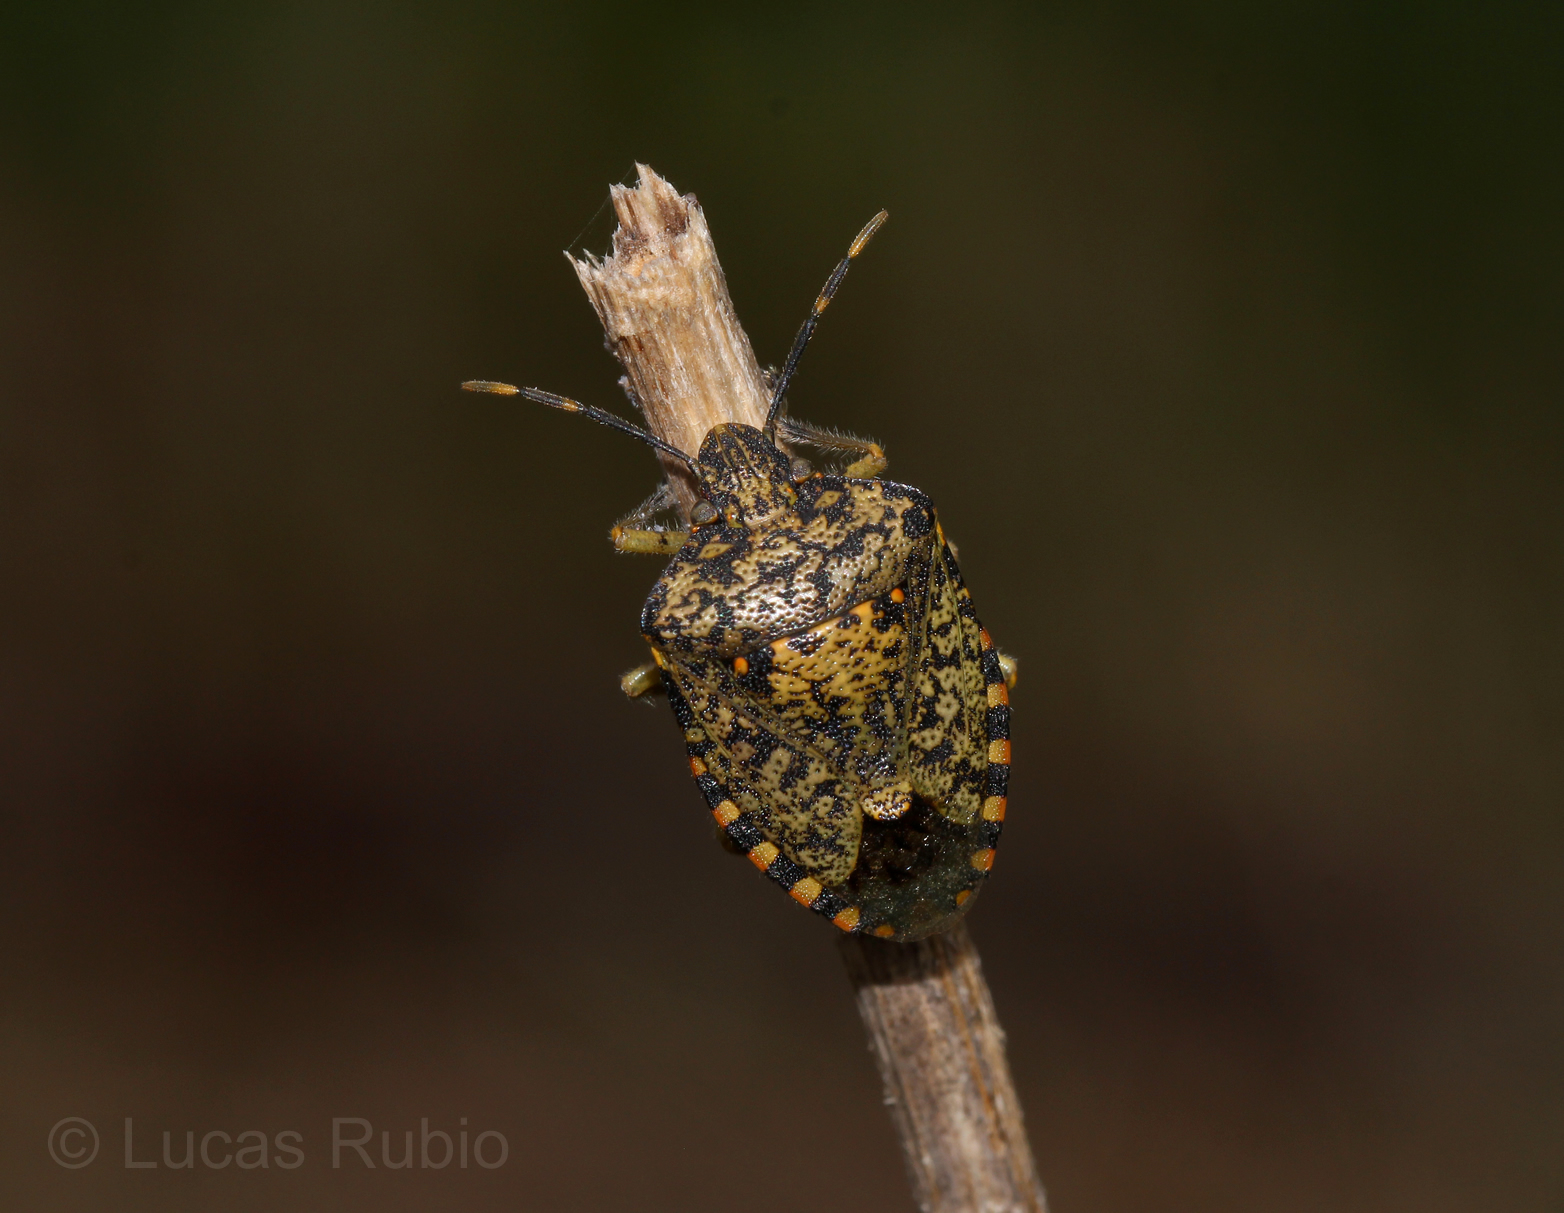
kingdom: Animalia
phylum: Arthropoda
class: Insecta
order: Hemiptera
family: Pentatomidae
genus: Chinavia
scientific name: Chinavia musiva
